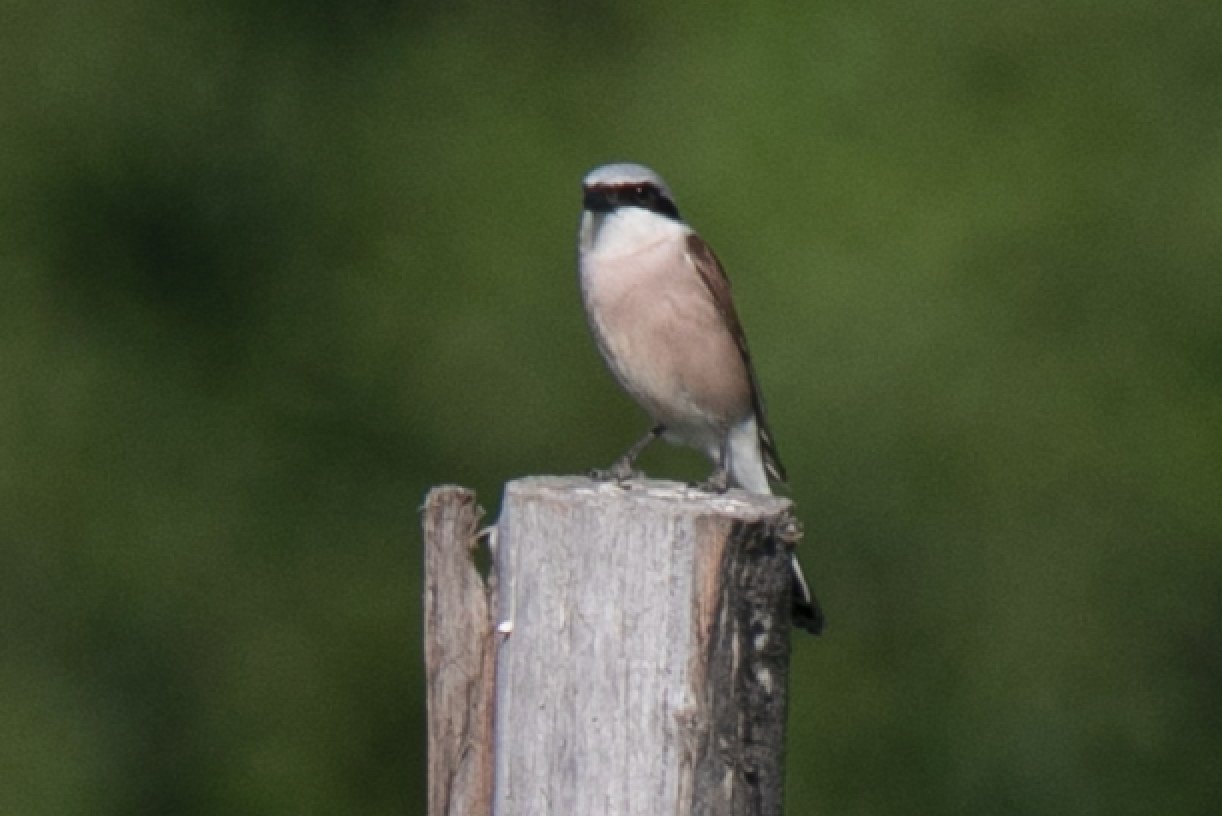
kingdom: Animalia
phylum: Chordata
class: Aves
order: Passeriformes
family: Laniidae
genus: Lanius
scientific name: Lanius collurio
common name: Red-backed shrike
